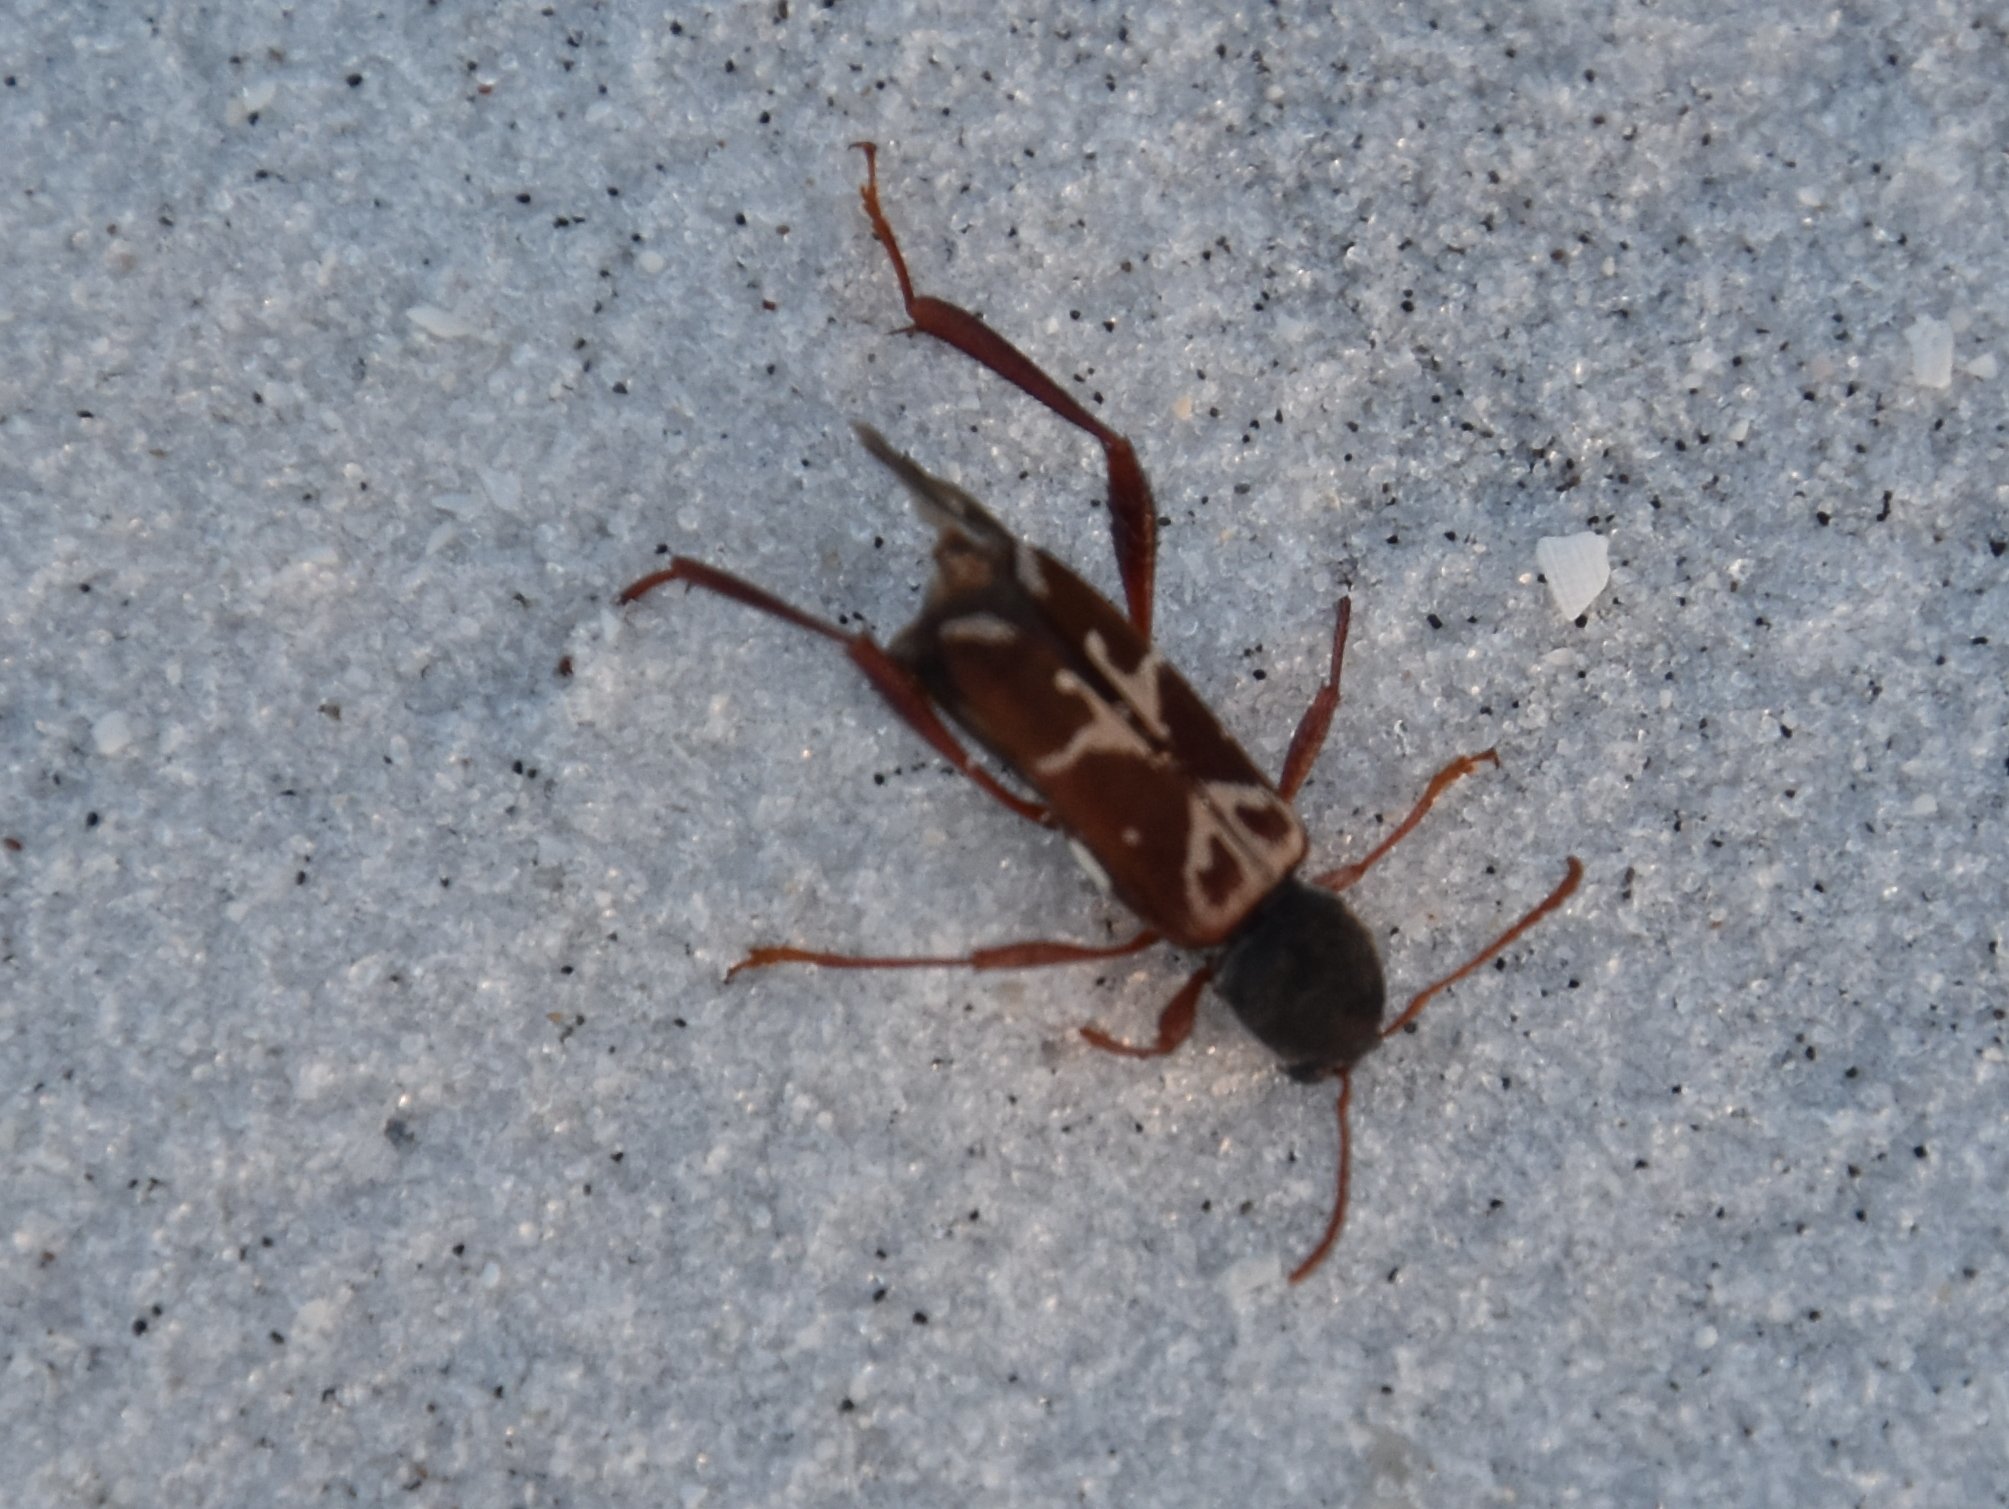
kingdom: Animalia
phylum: Arthropoda
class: Insecta
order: Coleoptera
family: Cerambycidae
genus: Neoclytus
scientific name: Neoclytus senilis
